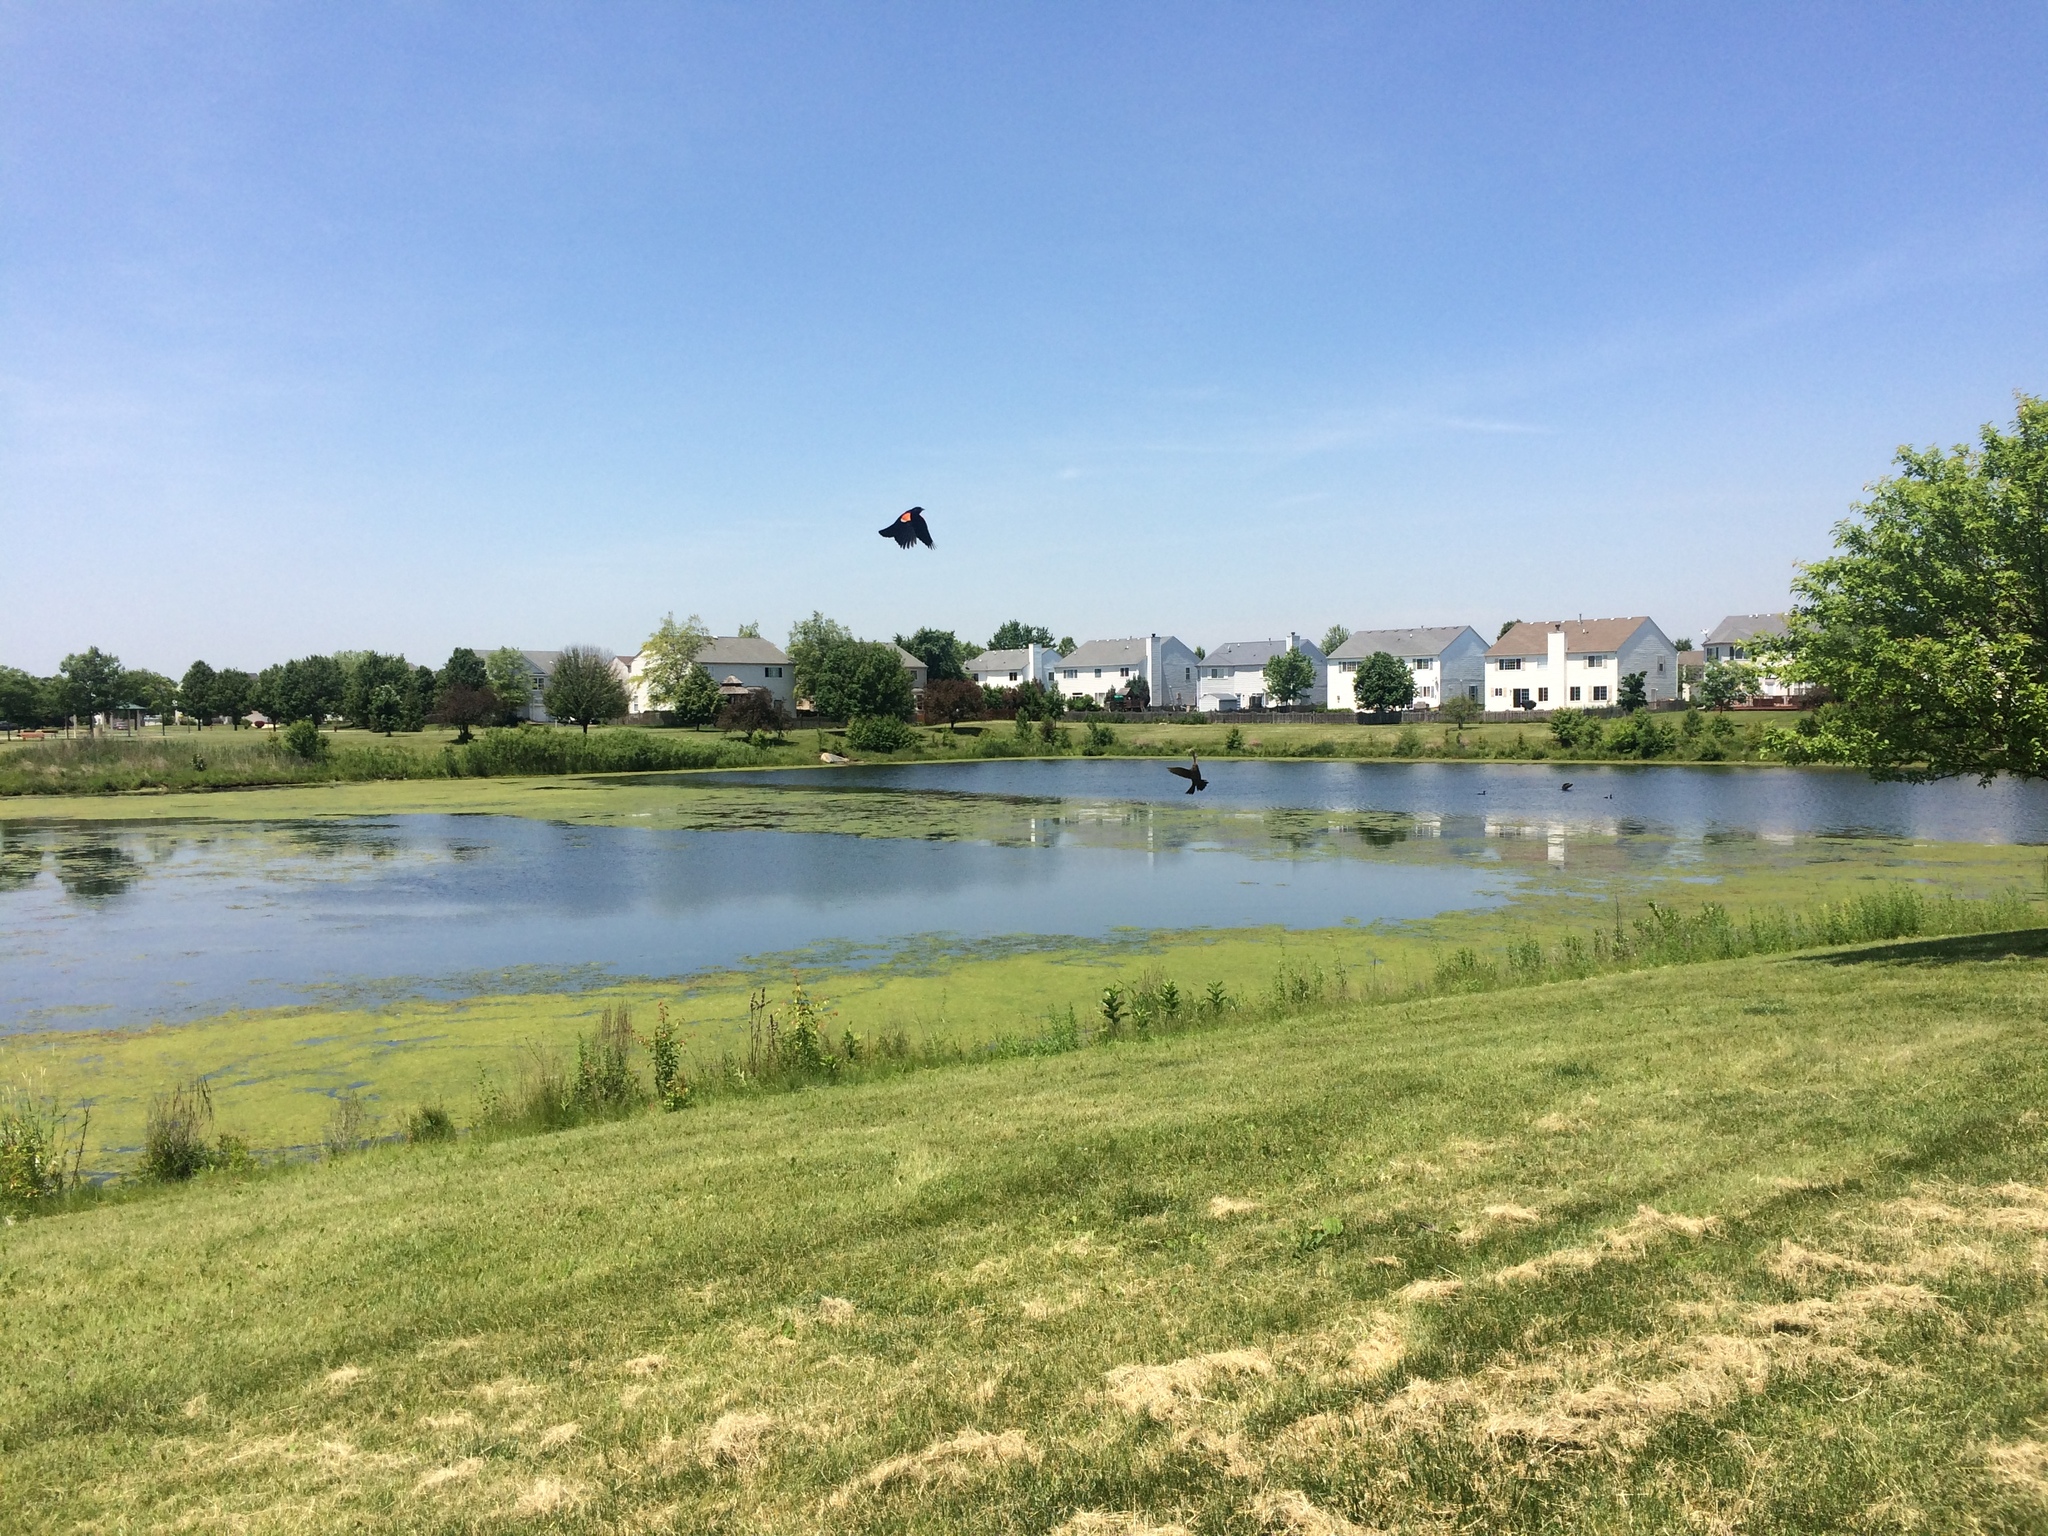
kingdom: Animalia
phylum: Chordata
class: Aves
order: Passeriformes
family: Icteridae
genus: Agelaius
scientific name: Agelaius phoeniceus
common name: Red-winged blackbird
